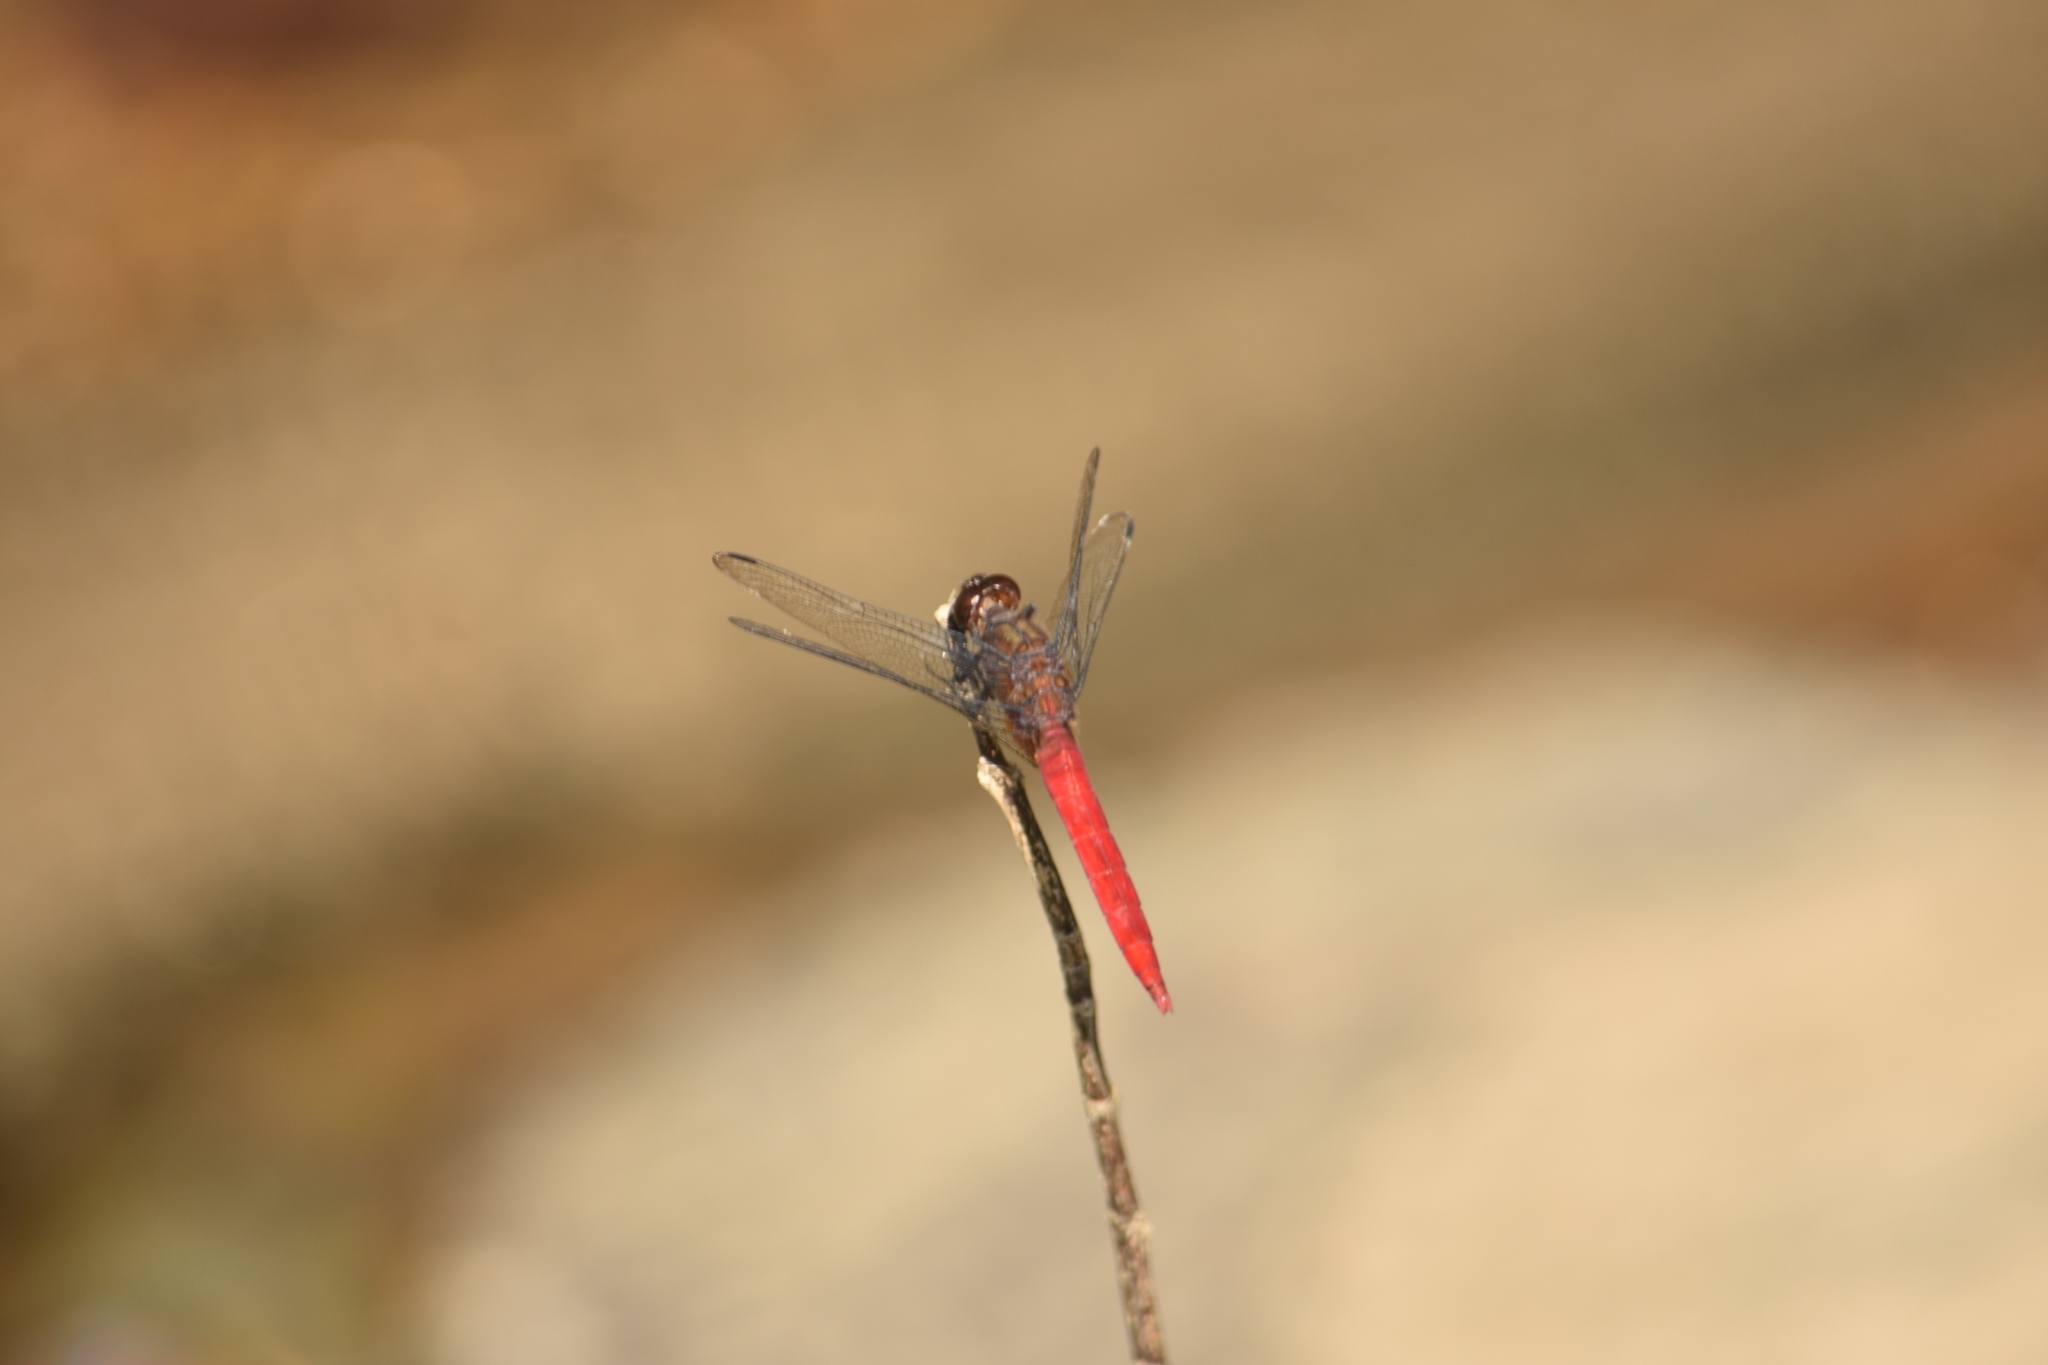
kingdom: Animalia
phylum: Arthropoda
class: Insecta
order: Odonata
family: Libellulidae
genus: Orthetrum
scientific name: Orthetrum chrysis
